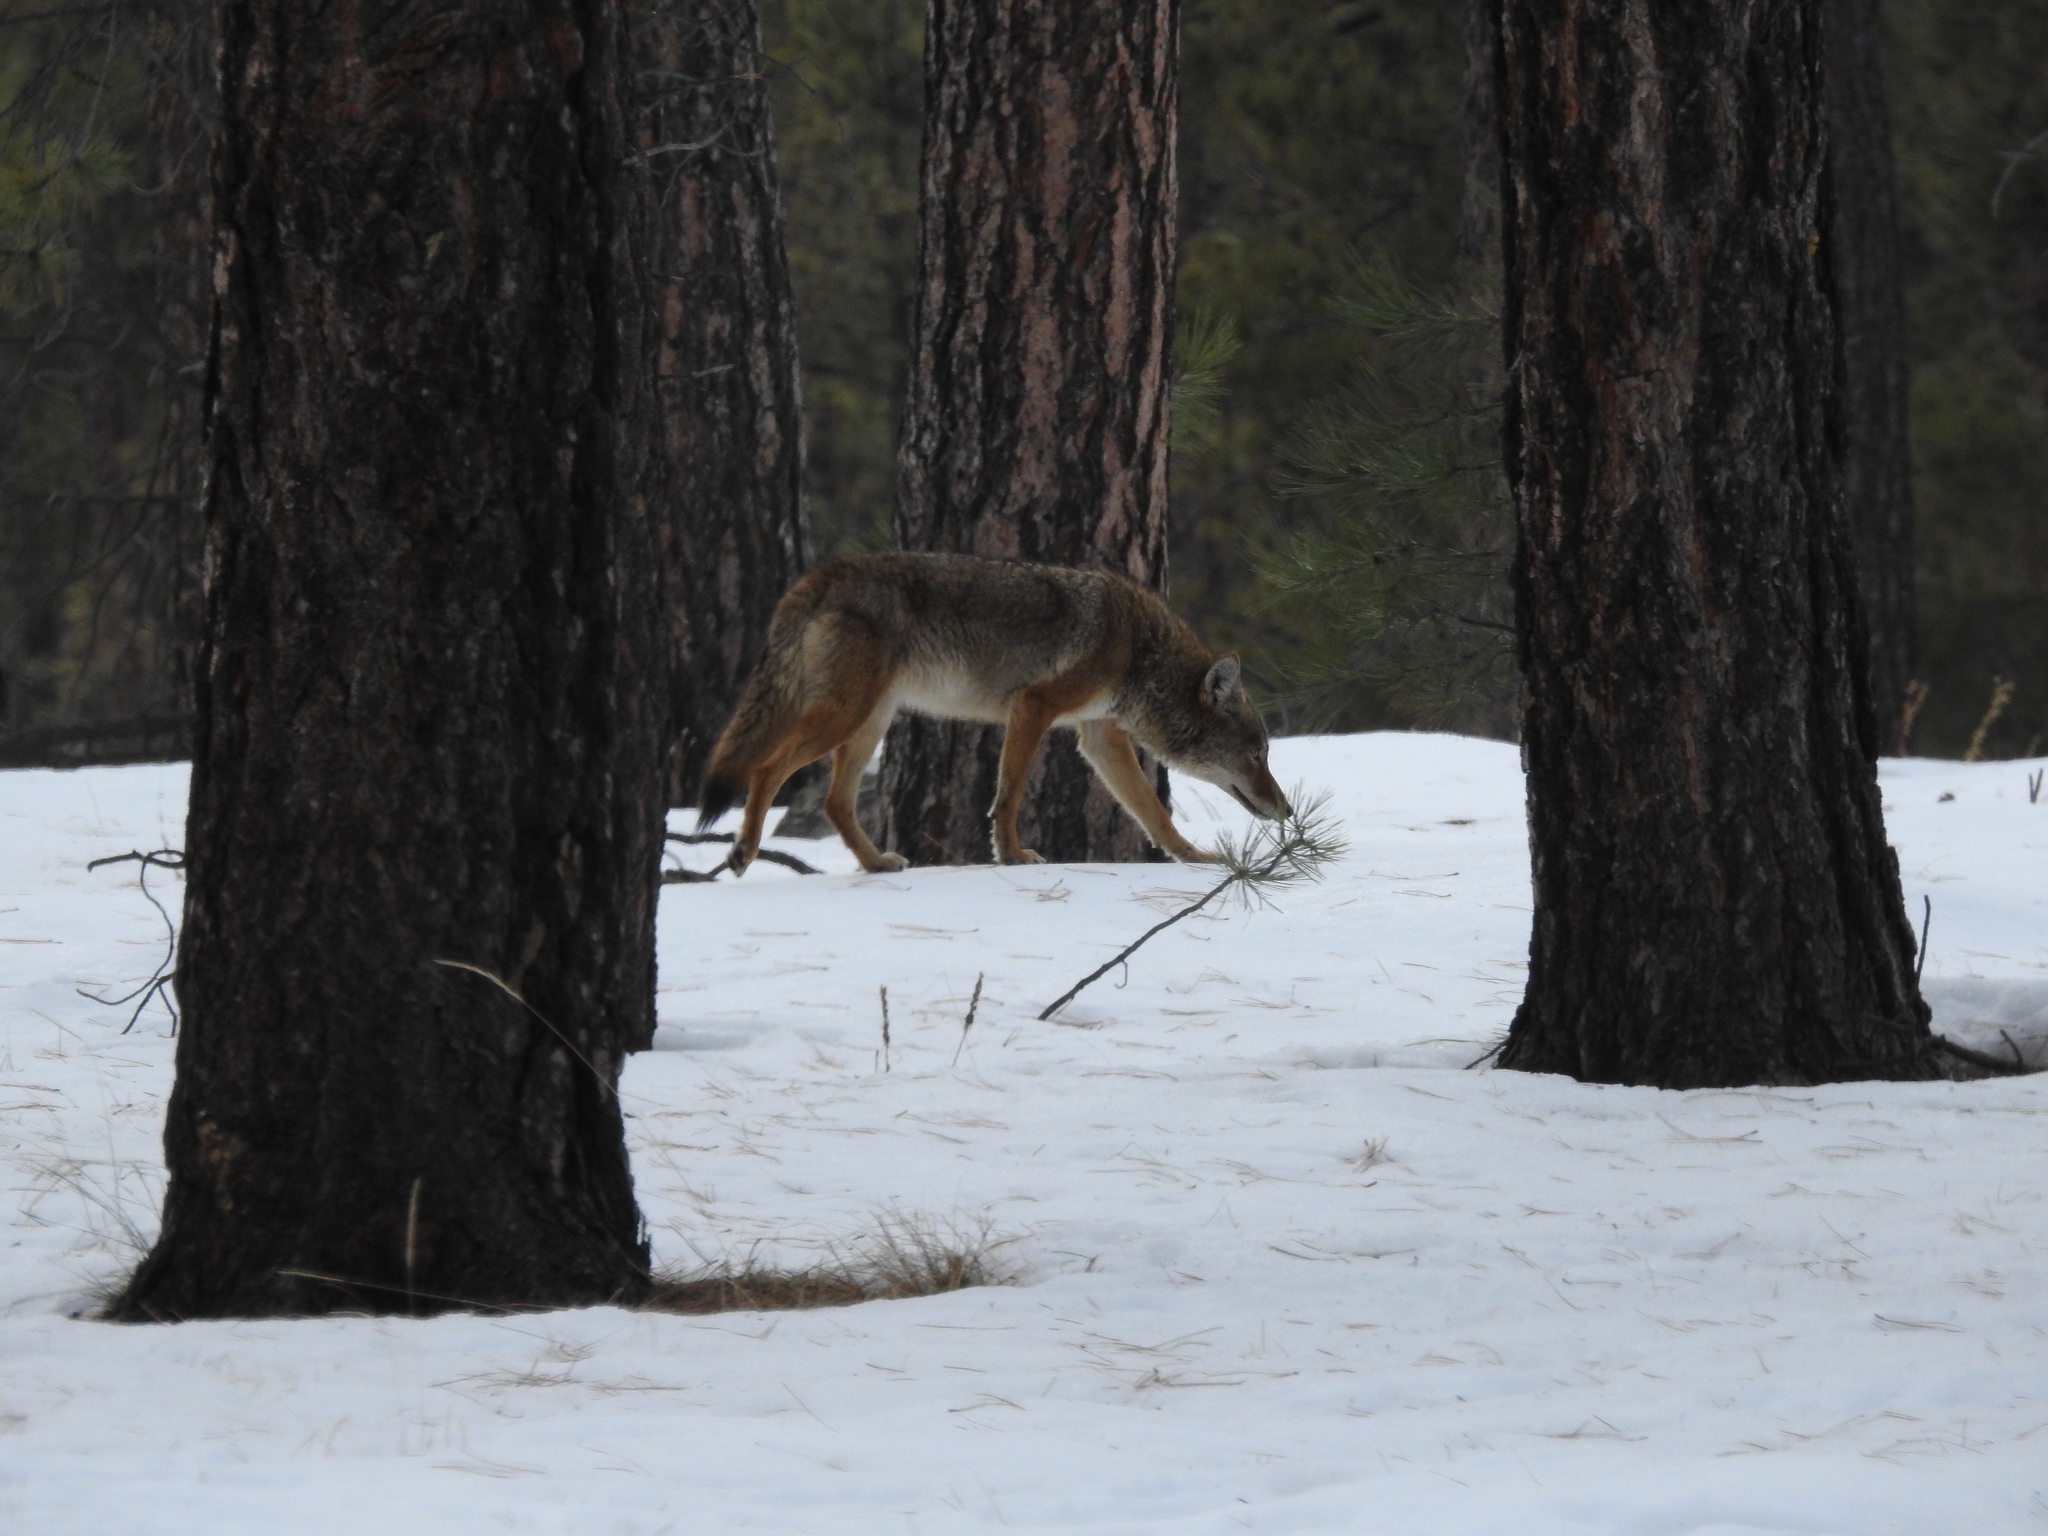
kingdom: Animalia
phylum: Chordata
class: Mammalia
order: Carnivora
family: Canidae
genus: Canis
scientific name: Canis latrans
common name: Coyote
